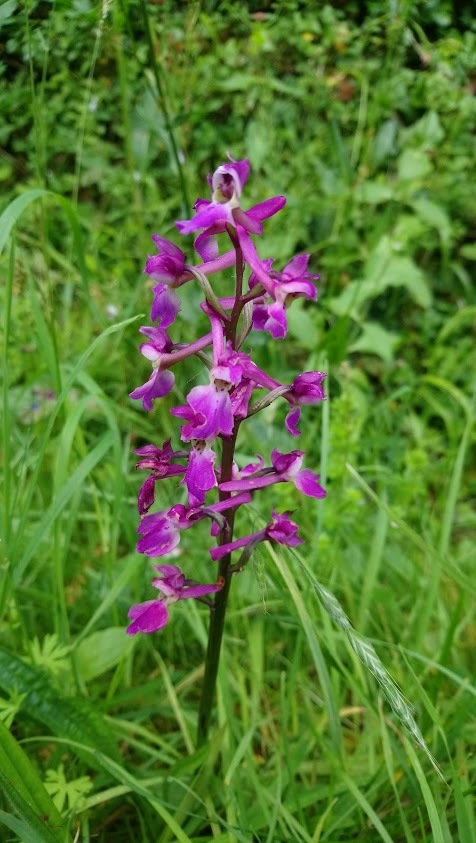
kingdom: Plantae
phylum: Tracheophyta
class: Liliopsida
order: Asparagales
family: Orchidaceae
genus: Orchis
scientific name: Orchis mascula
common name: Early-purple orchid
